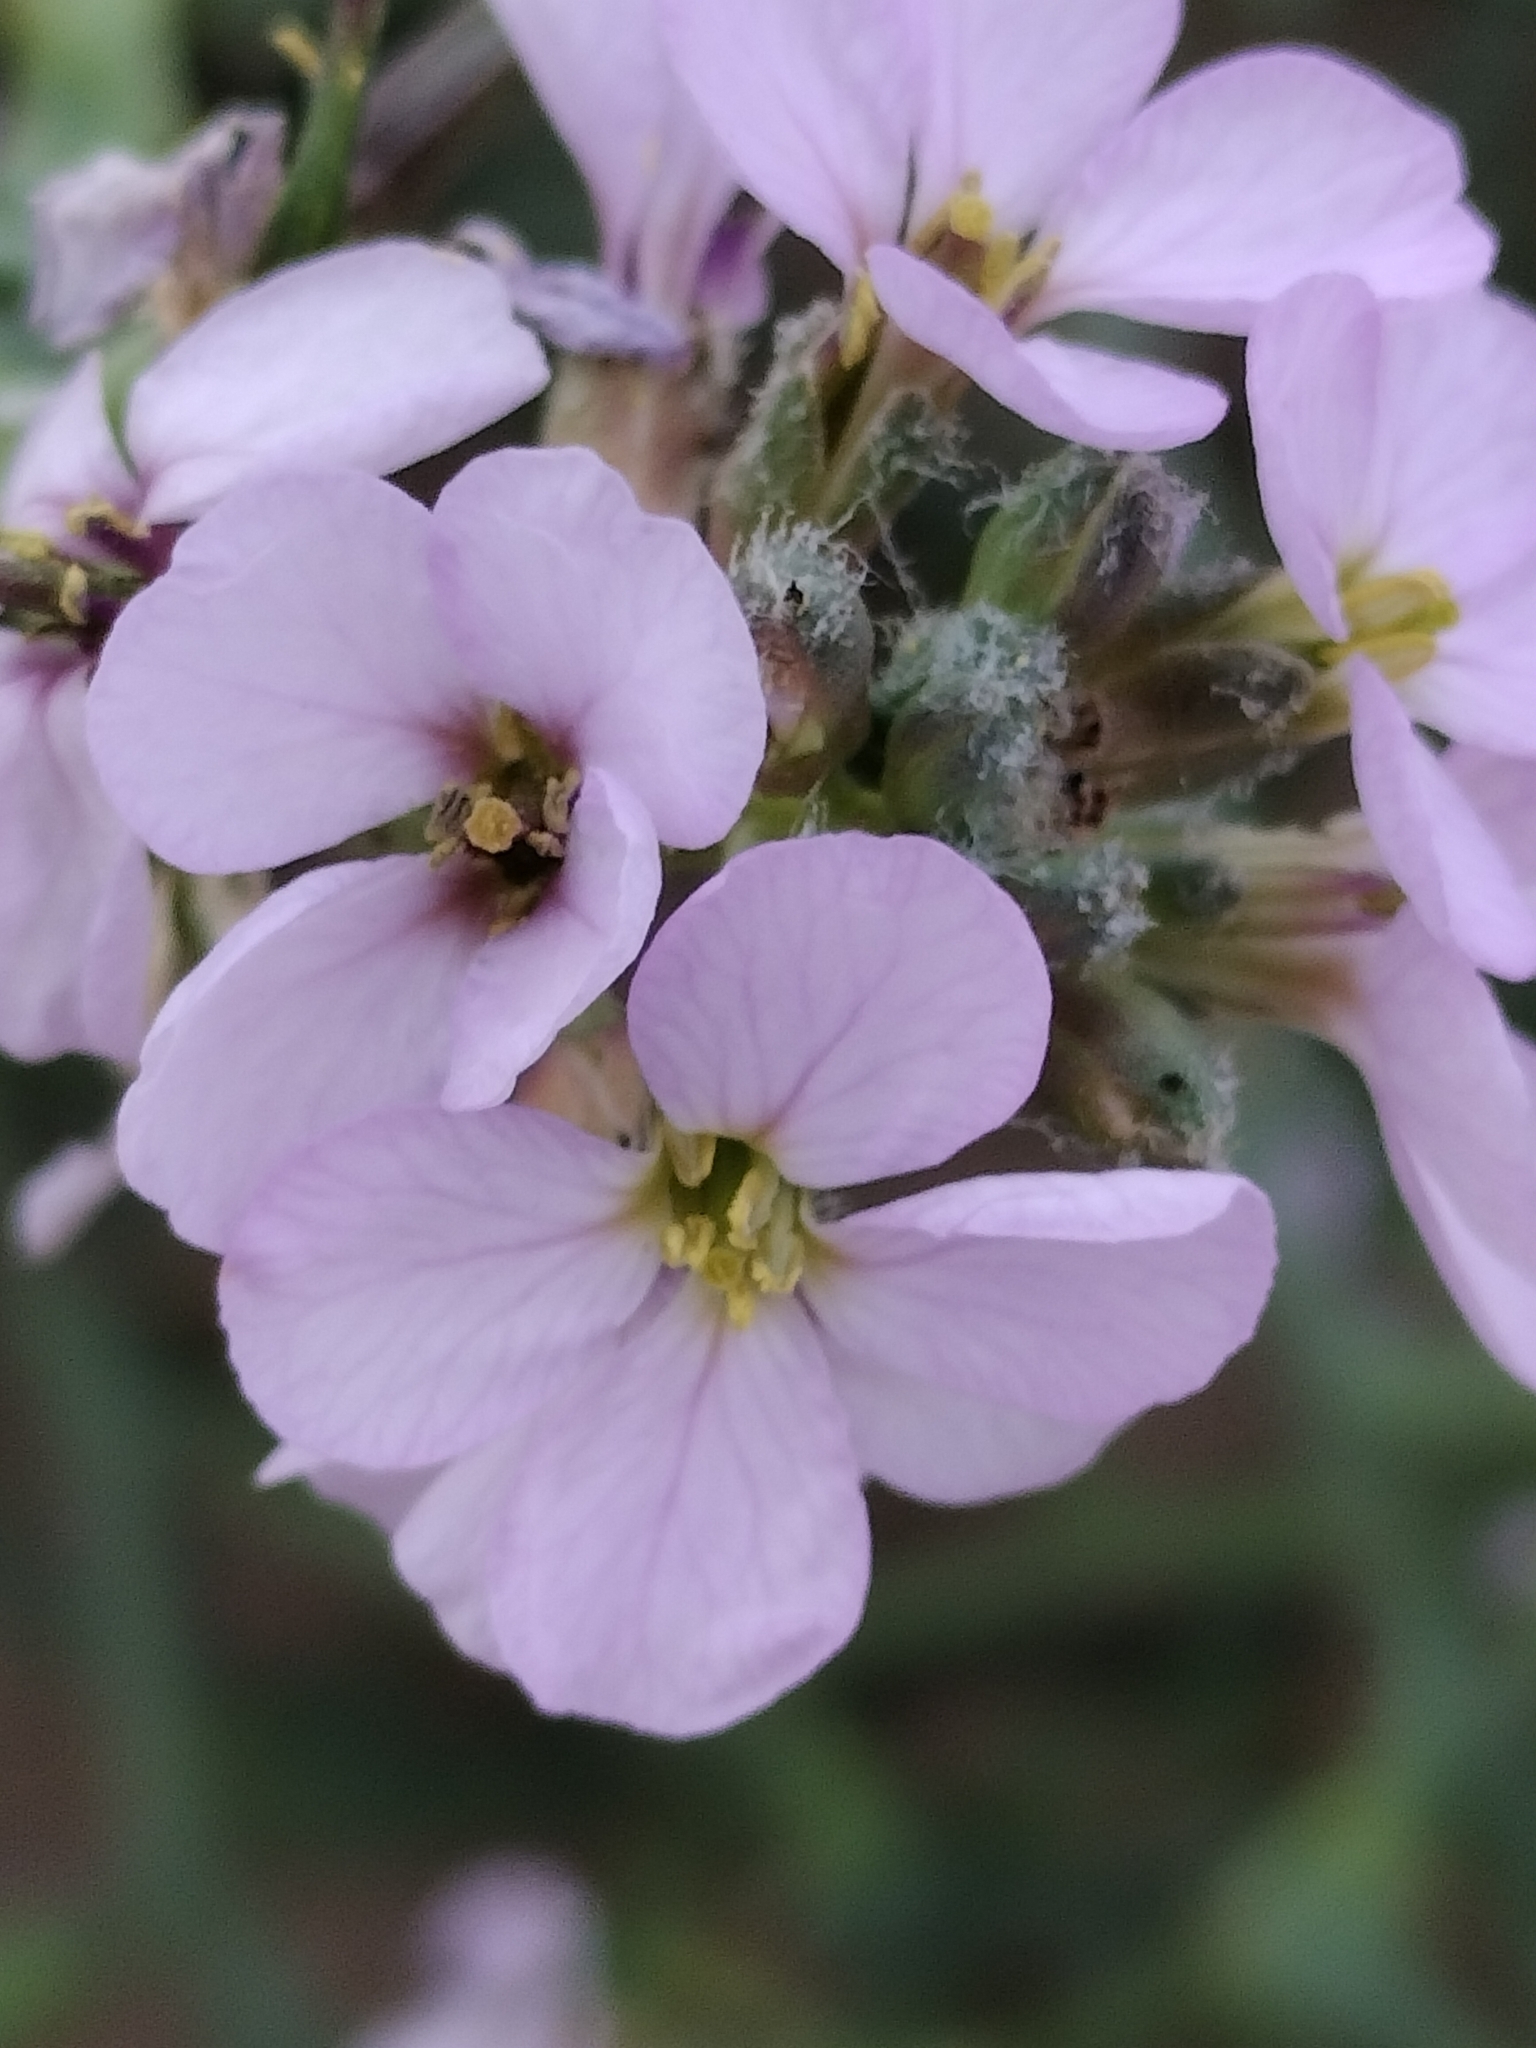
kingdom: Plantae
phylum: Tracheophyta
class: Magnoliopsida
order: Brassicales
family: Brassicaceae
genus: Cakile
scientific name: Cakile maritima
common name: Sea rocket
